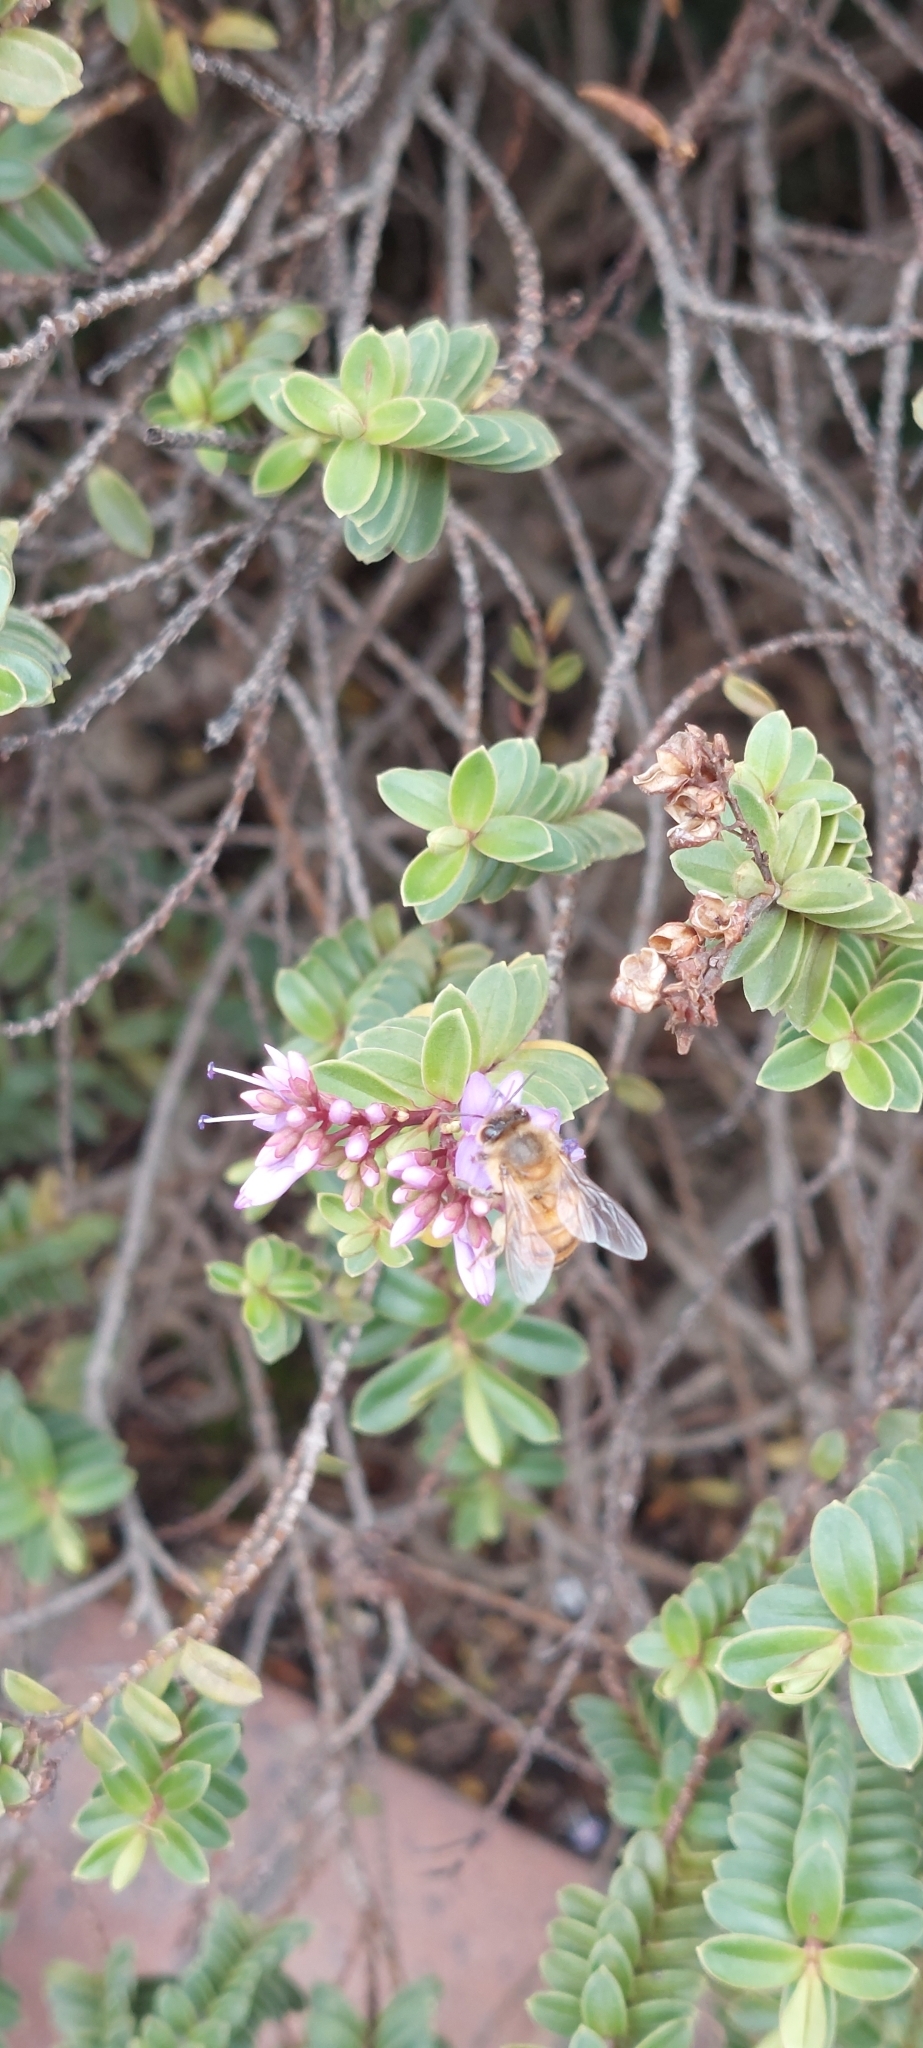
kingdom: Animalia
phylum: Arthropoda
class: Insecta
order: Hymenoptera
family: Apidae
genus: Apis
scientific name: Apis mellifera
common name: Honey bee
